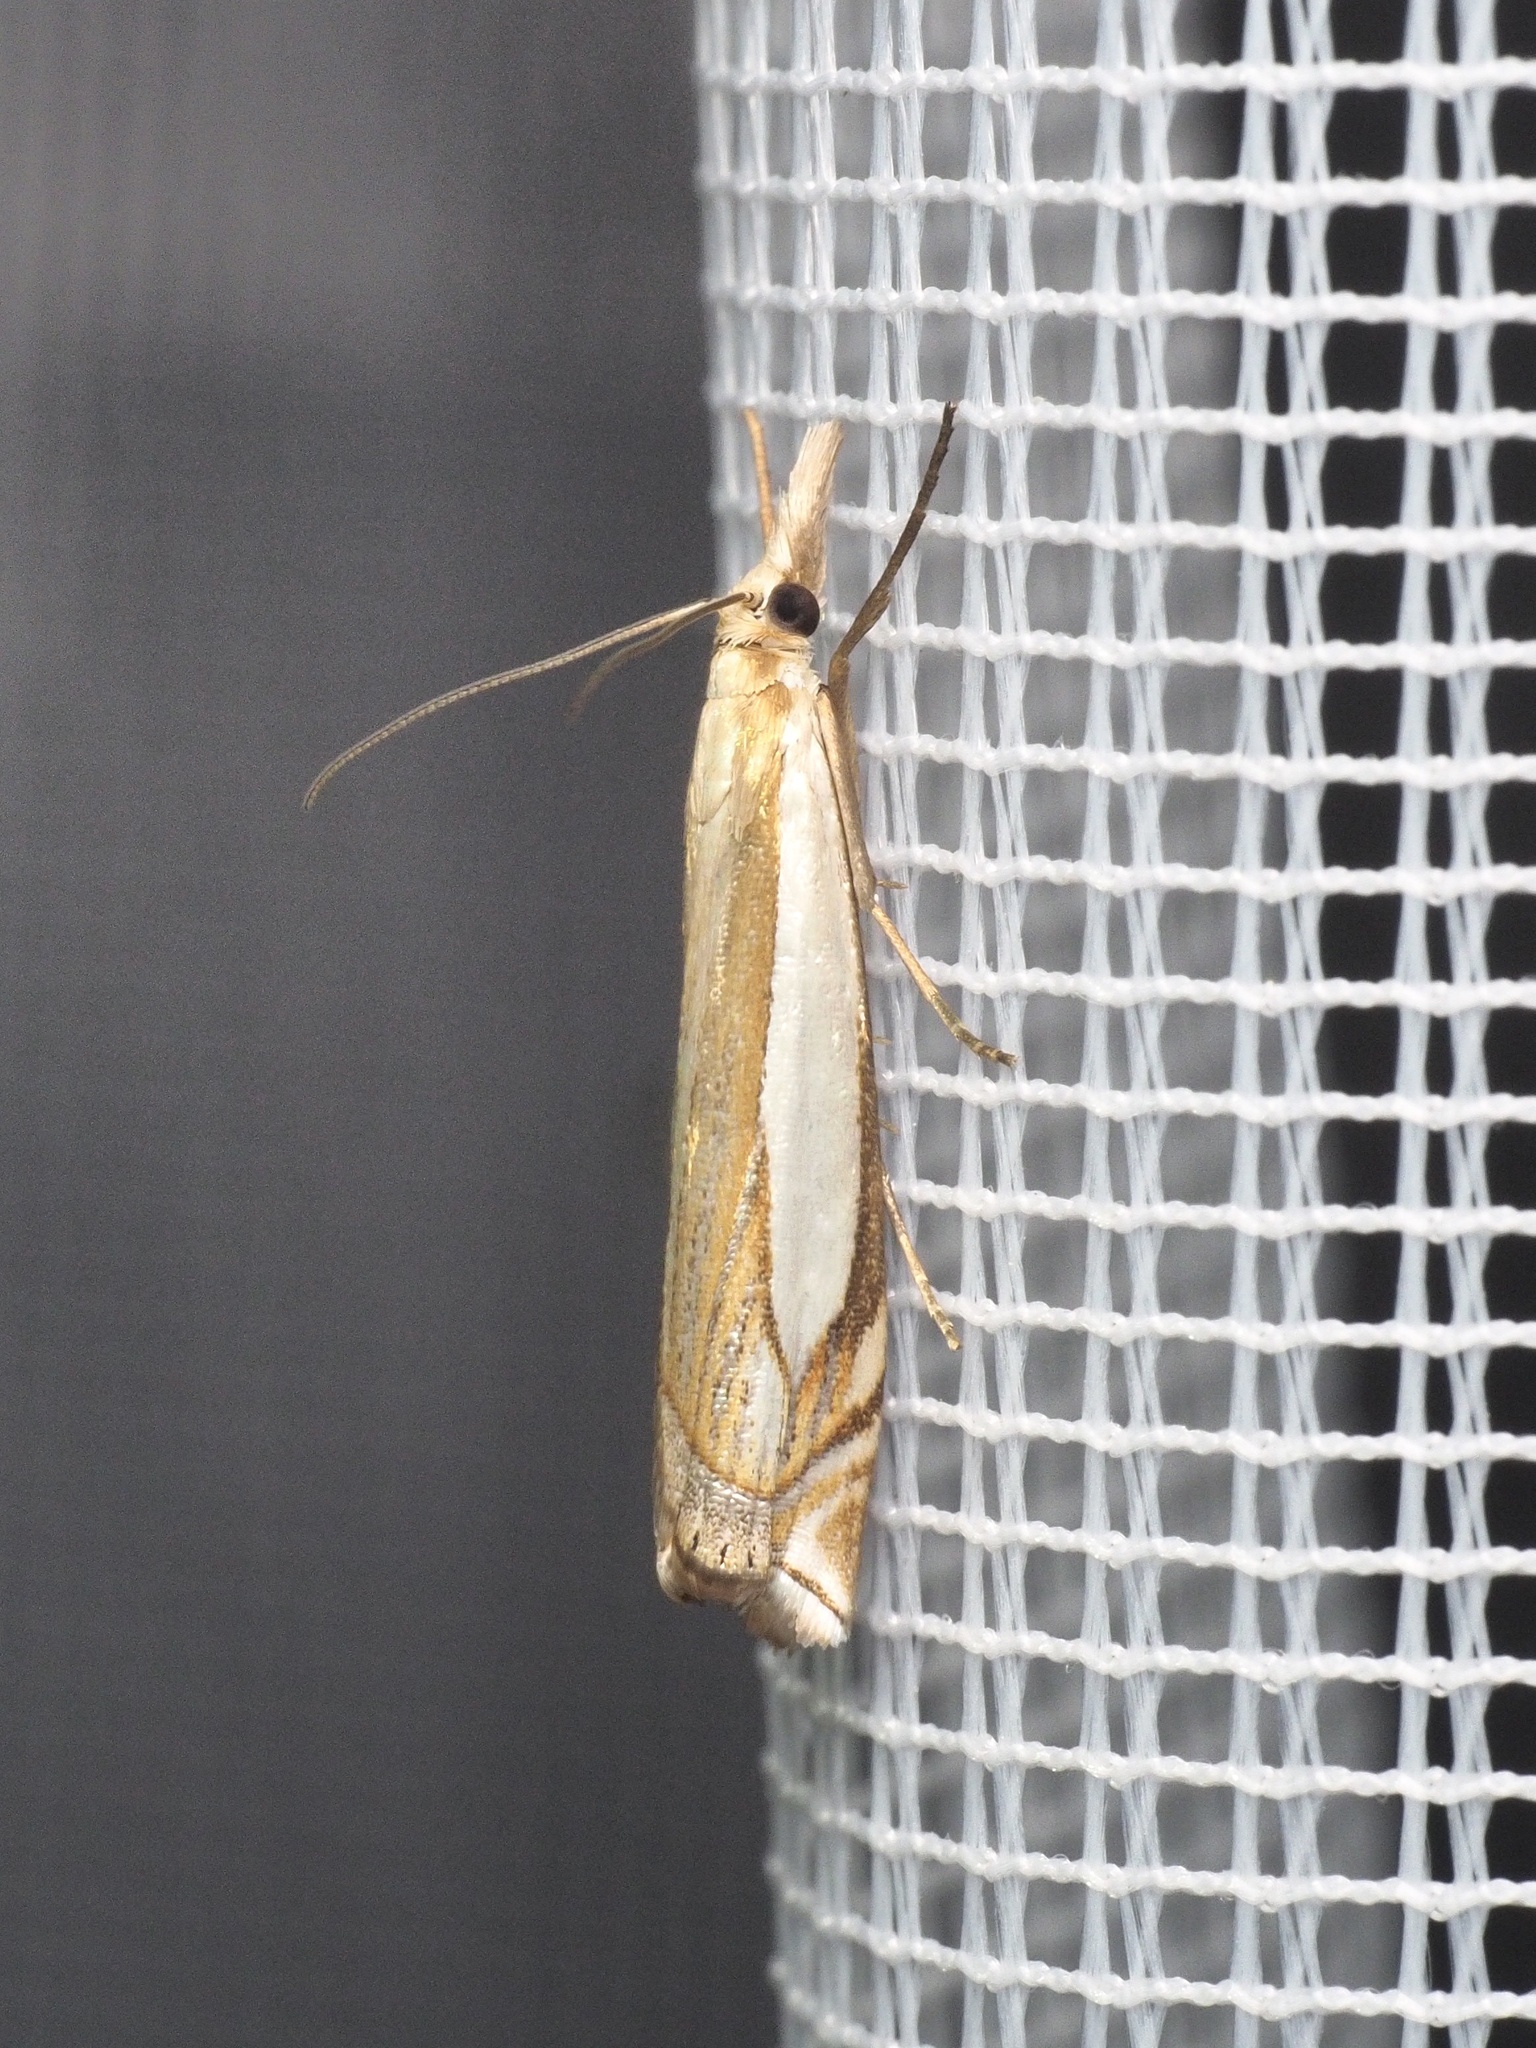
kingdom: Animalia
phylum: Arthropoda
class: Insecta
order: Lepidoptera
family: Crambidae
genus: Crambus
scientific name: Crambus pascuella
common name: Inlaid grass-veneer
